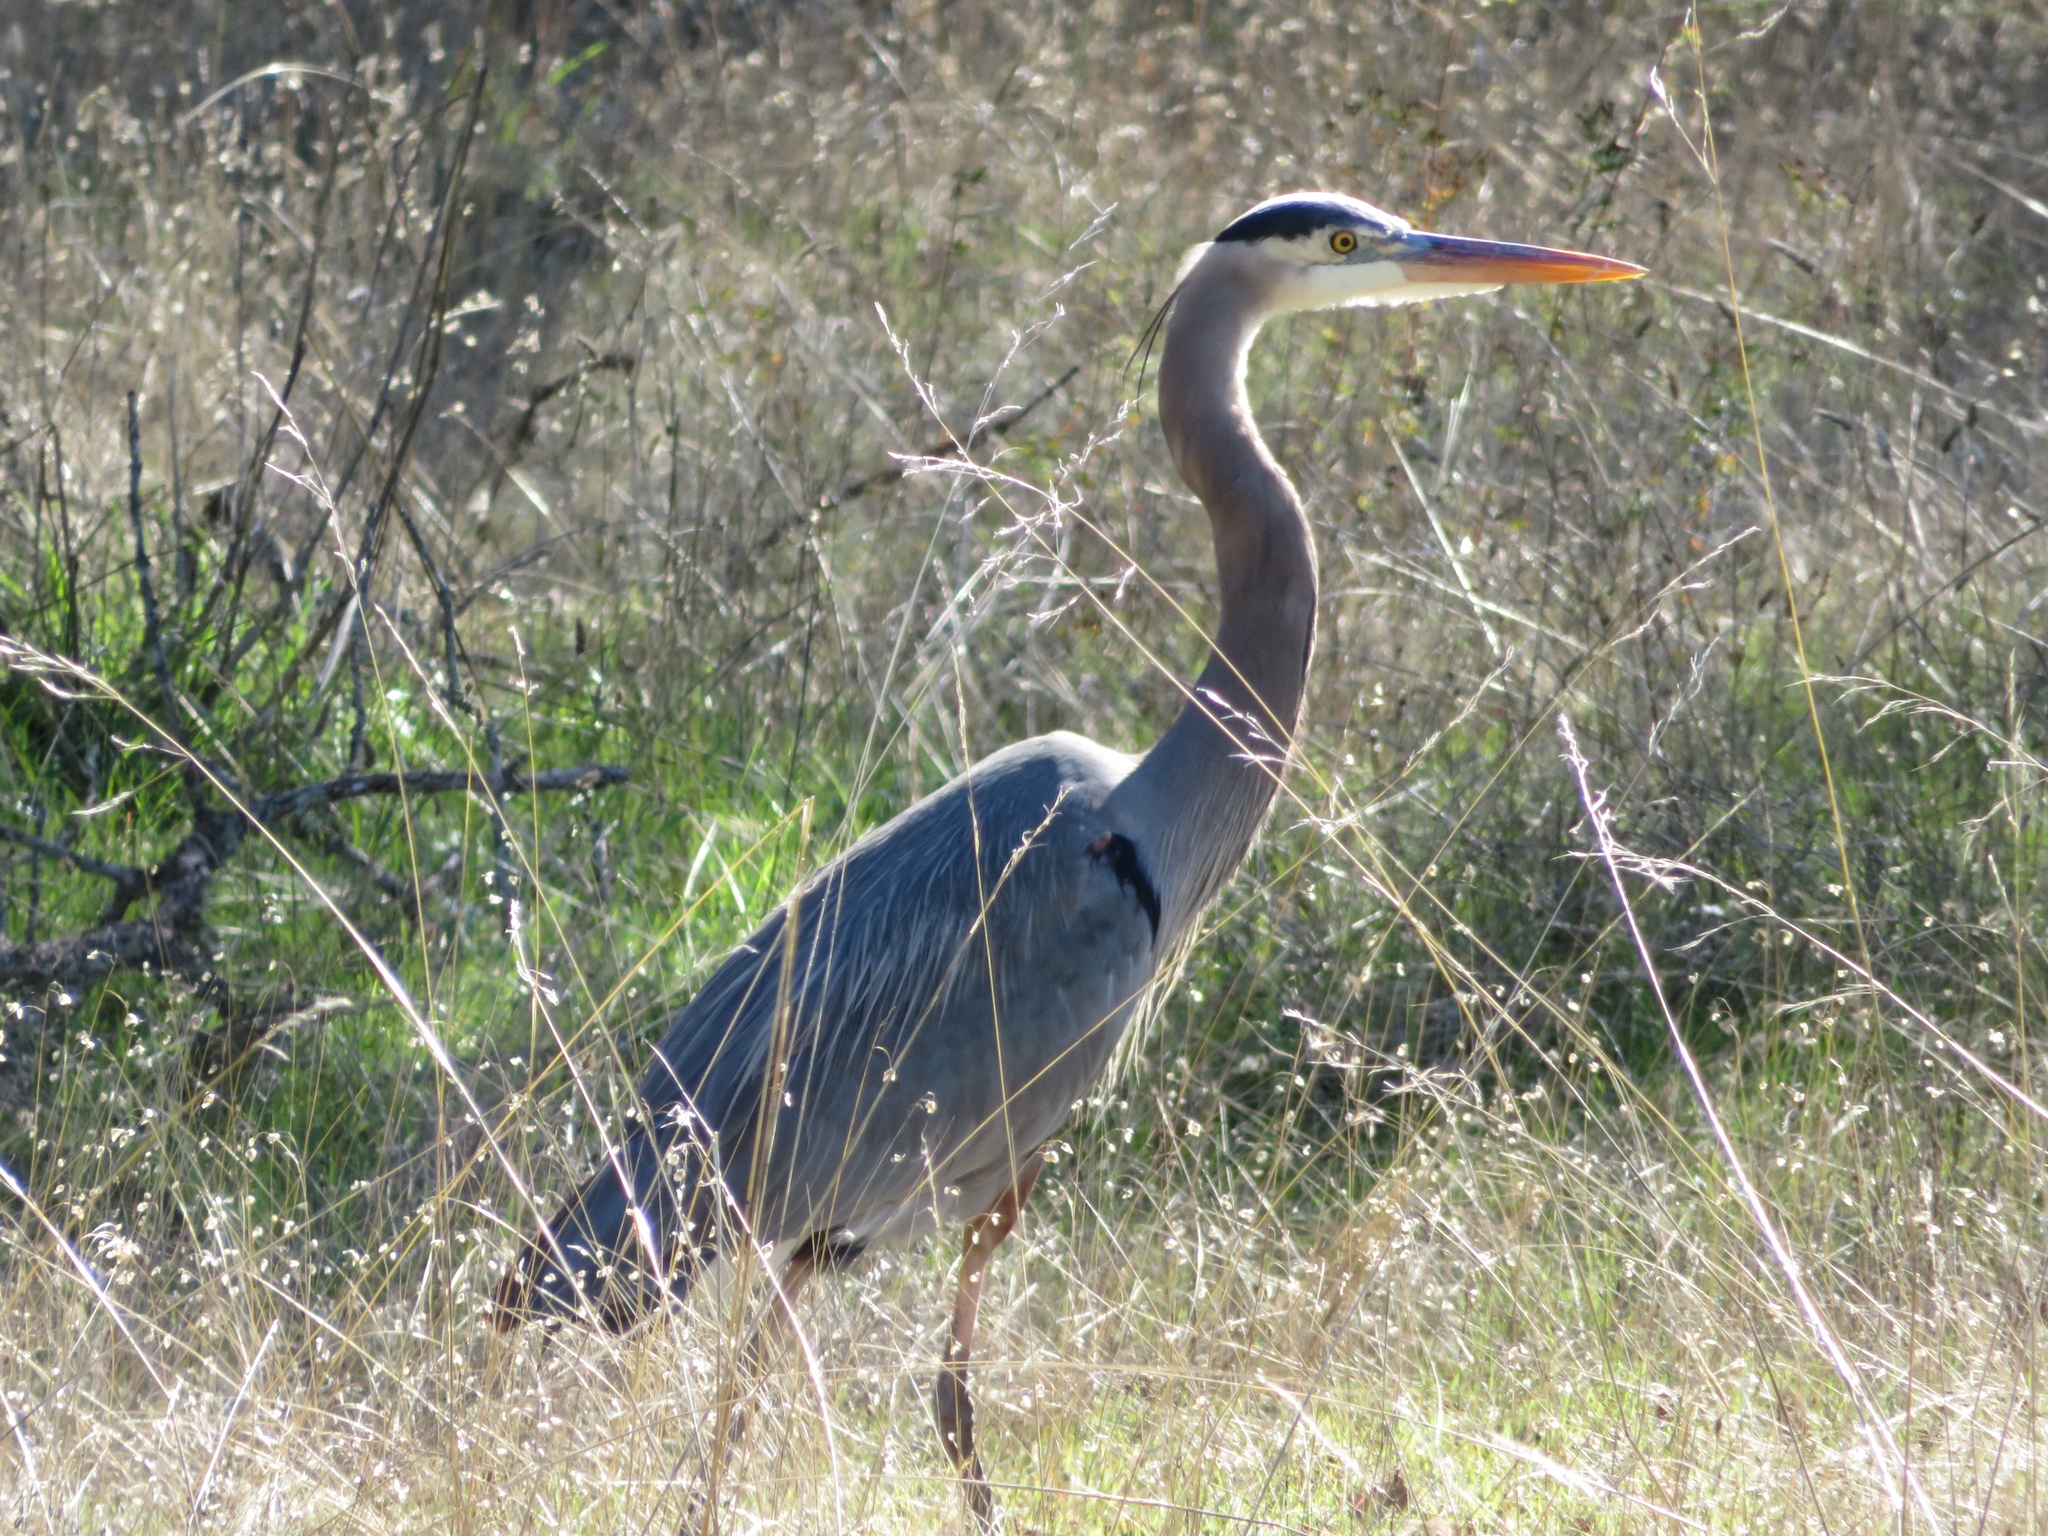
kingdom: Animalia
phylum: Chordata
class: Aves
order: Pelecaniformes
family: Ardeidae
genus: Ardea
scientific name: Ardea herodias
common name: Great blue heron
